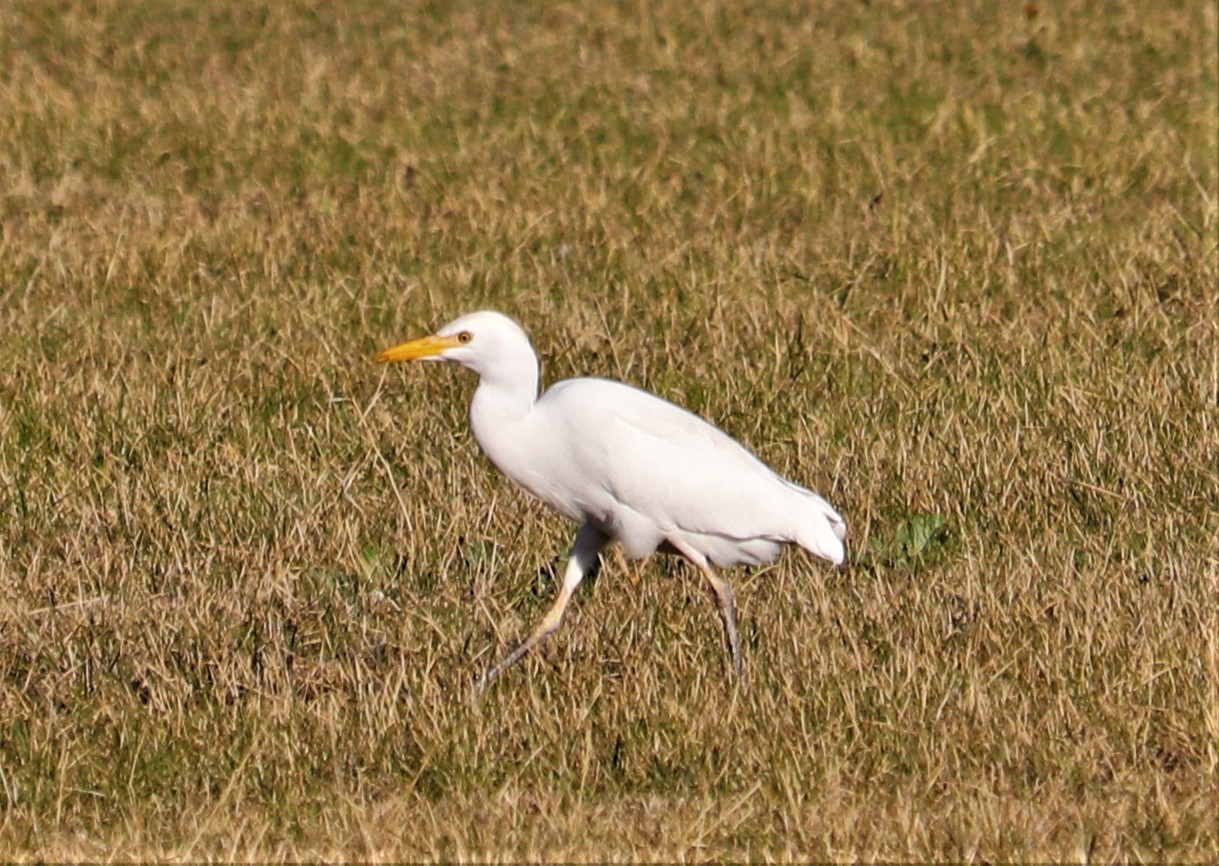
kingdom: Animalia
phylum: Chordata
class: Aves
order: Pelecaniformes
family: Ardeidae
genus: Bubulcus
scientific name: Bubulcus ibis
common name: Cattle egret
